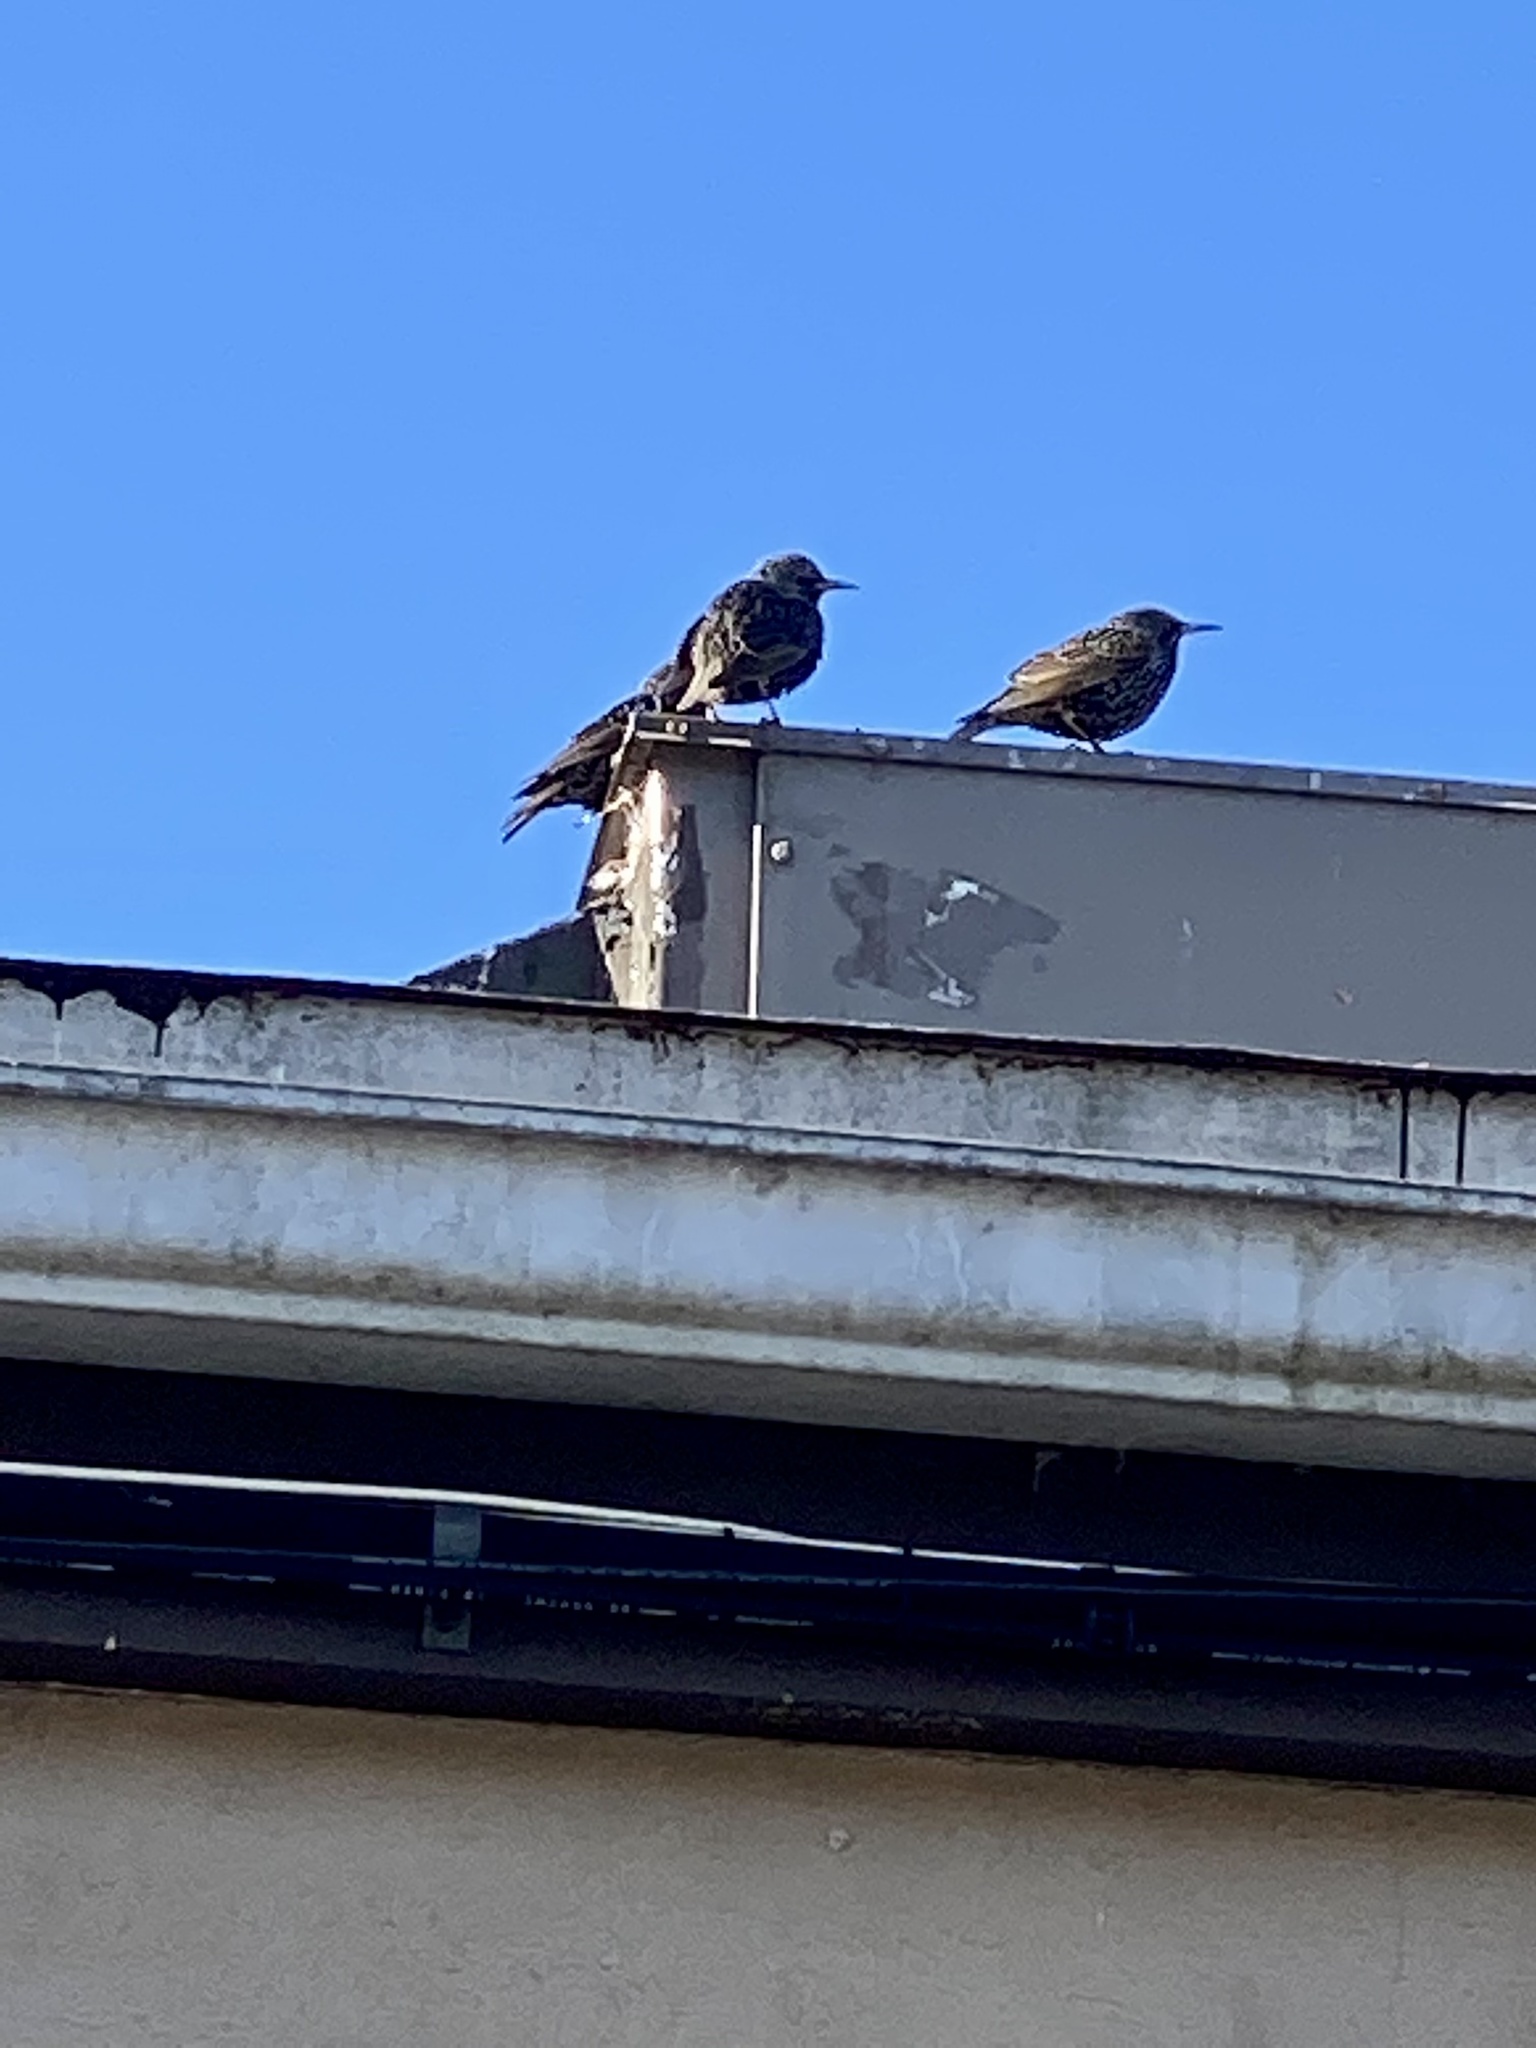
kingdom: Animalia
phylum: Chordata
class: Aves
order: Passeriformes
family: Sturnidae
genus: Sturnus
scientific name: Sturnus vulgaris
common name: Common starling
